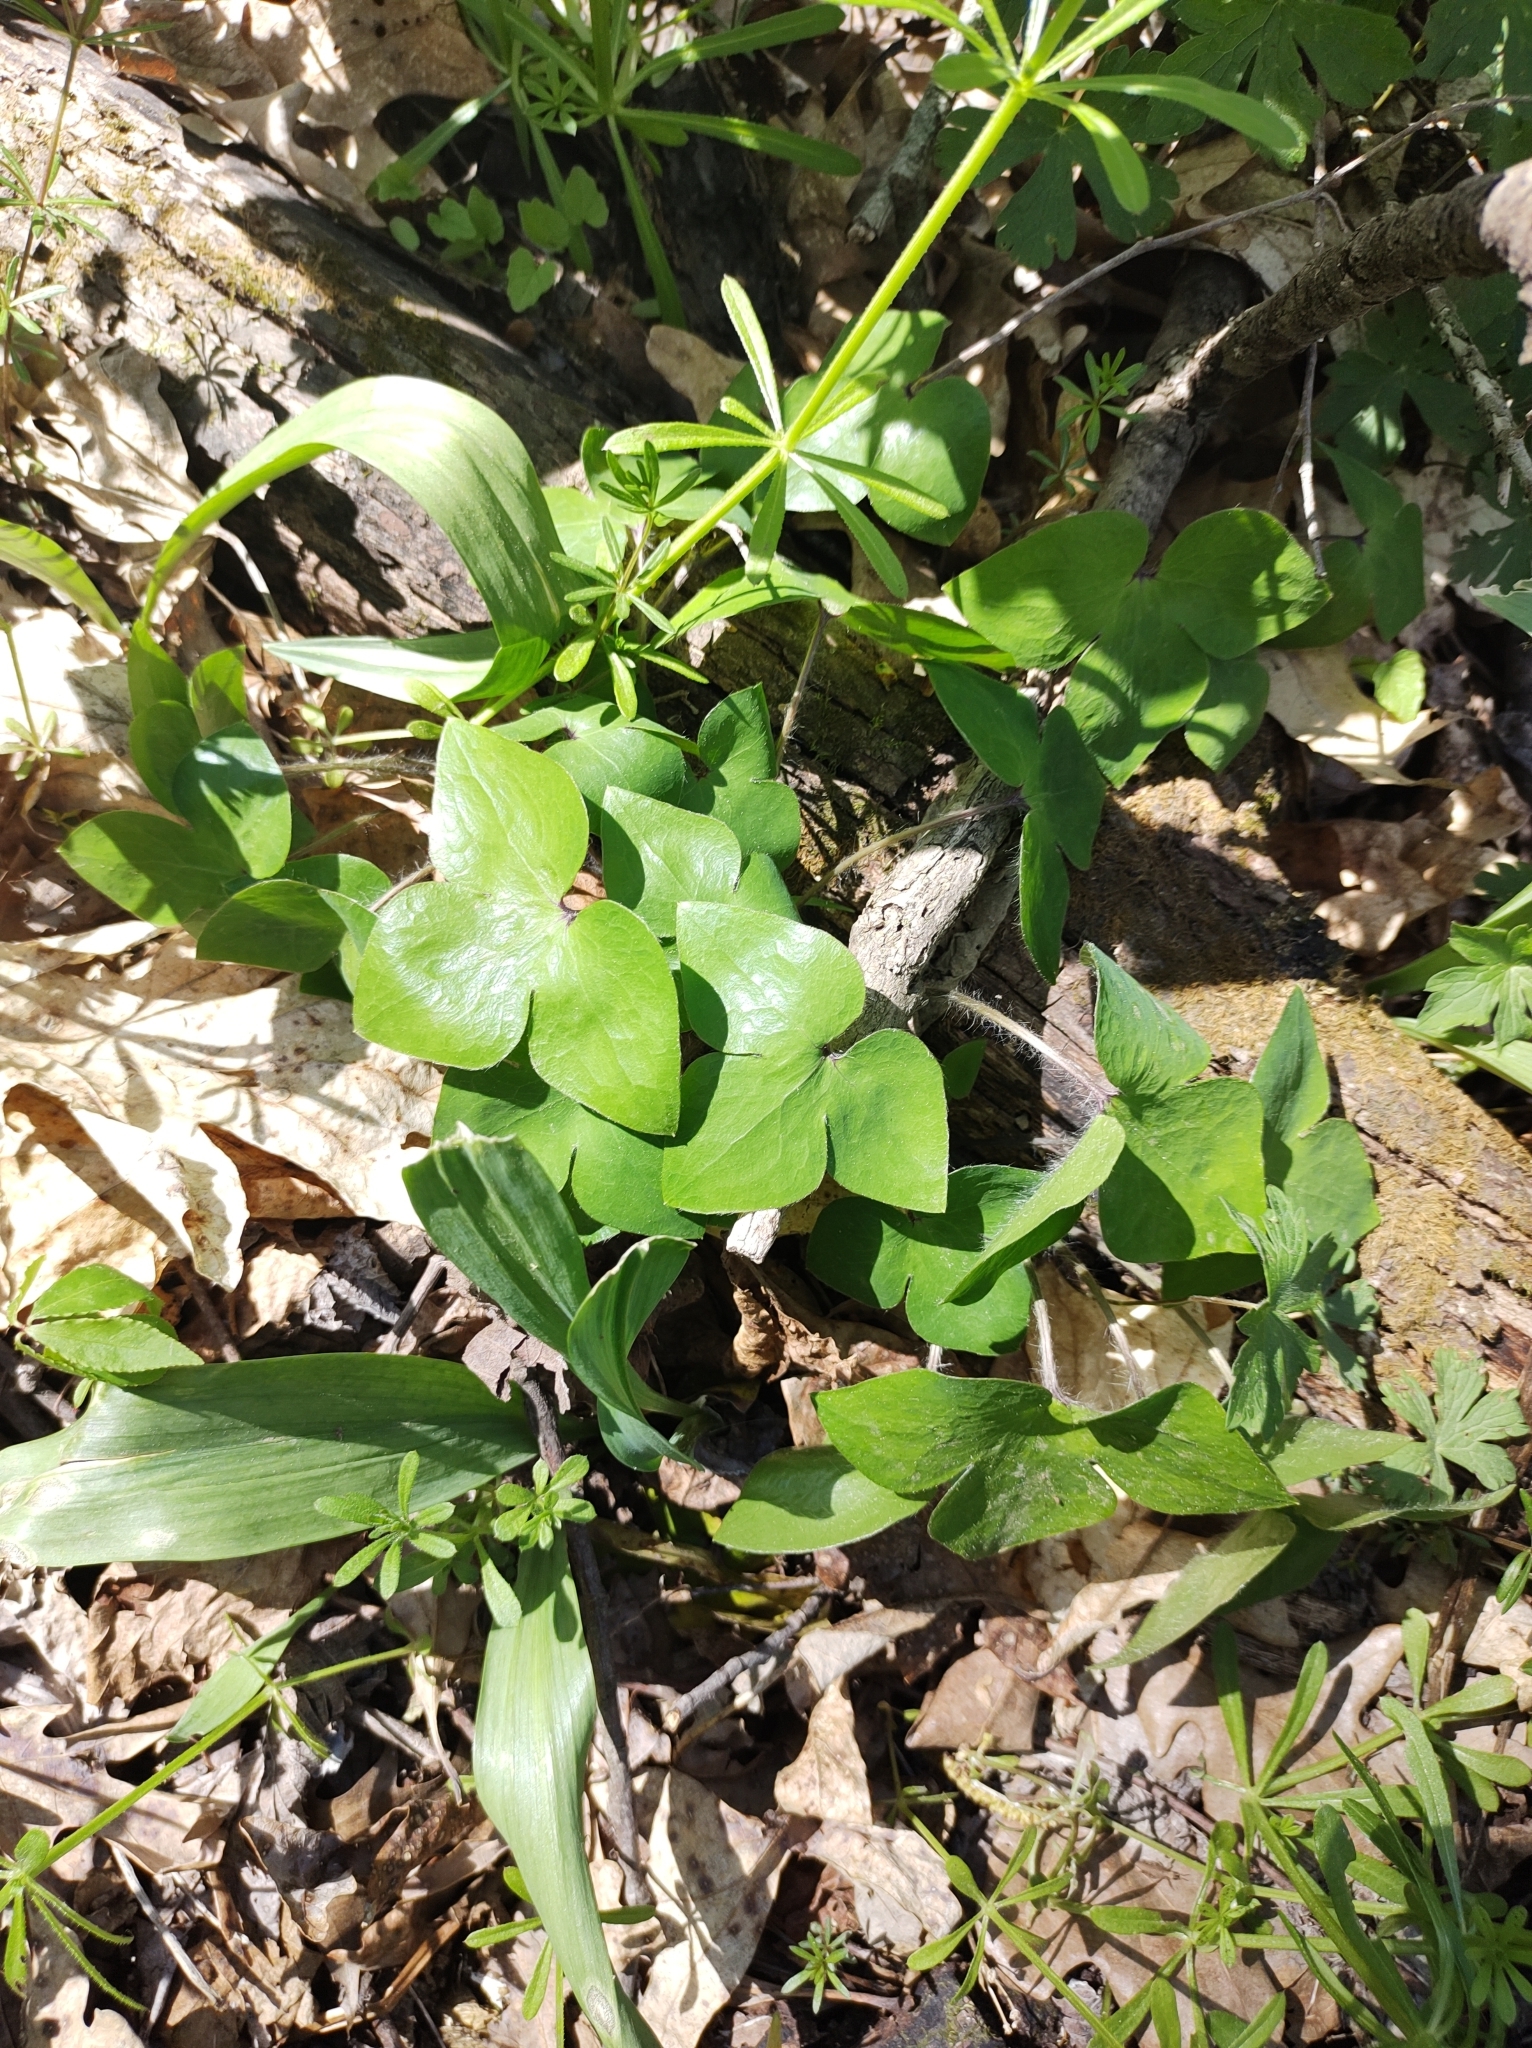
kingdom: Plantae
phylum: Tracheophyta
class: Magnoliopsida
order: Ranunculales
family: Ranunculaceae
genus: Hepatica
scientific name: Hepatica acutiloba
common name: Sharp-lobed hepatica
